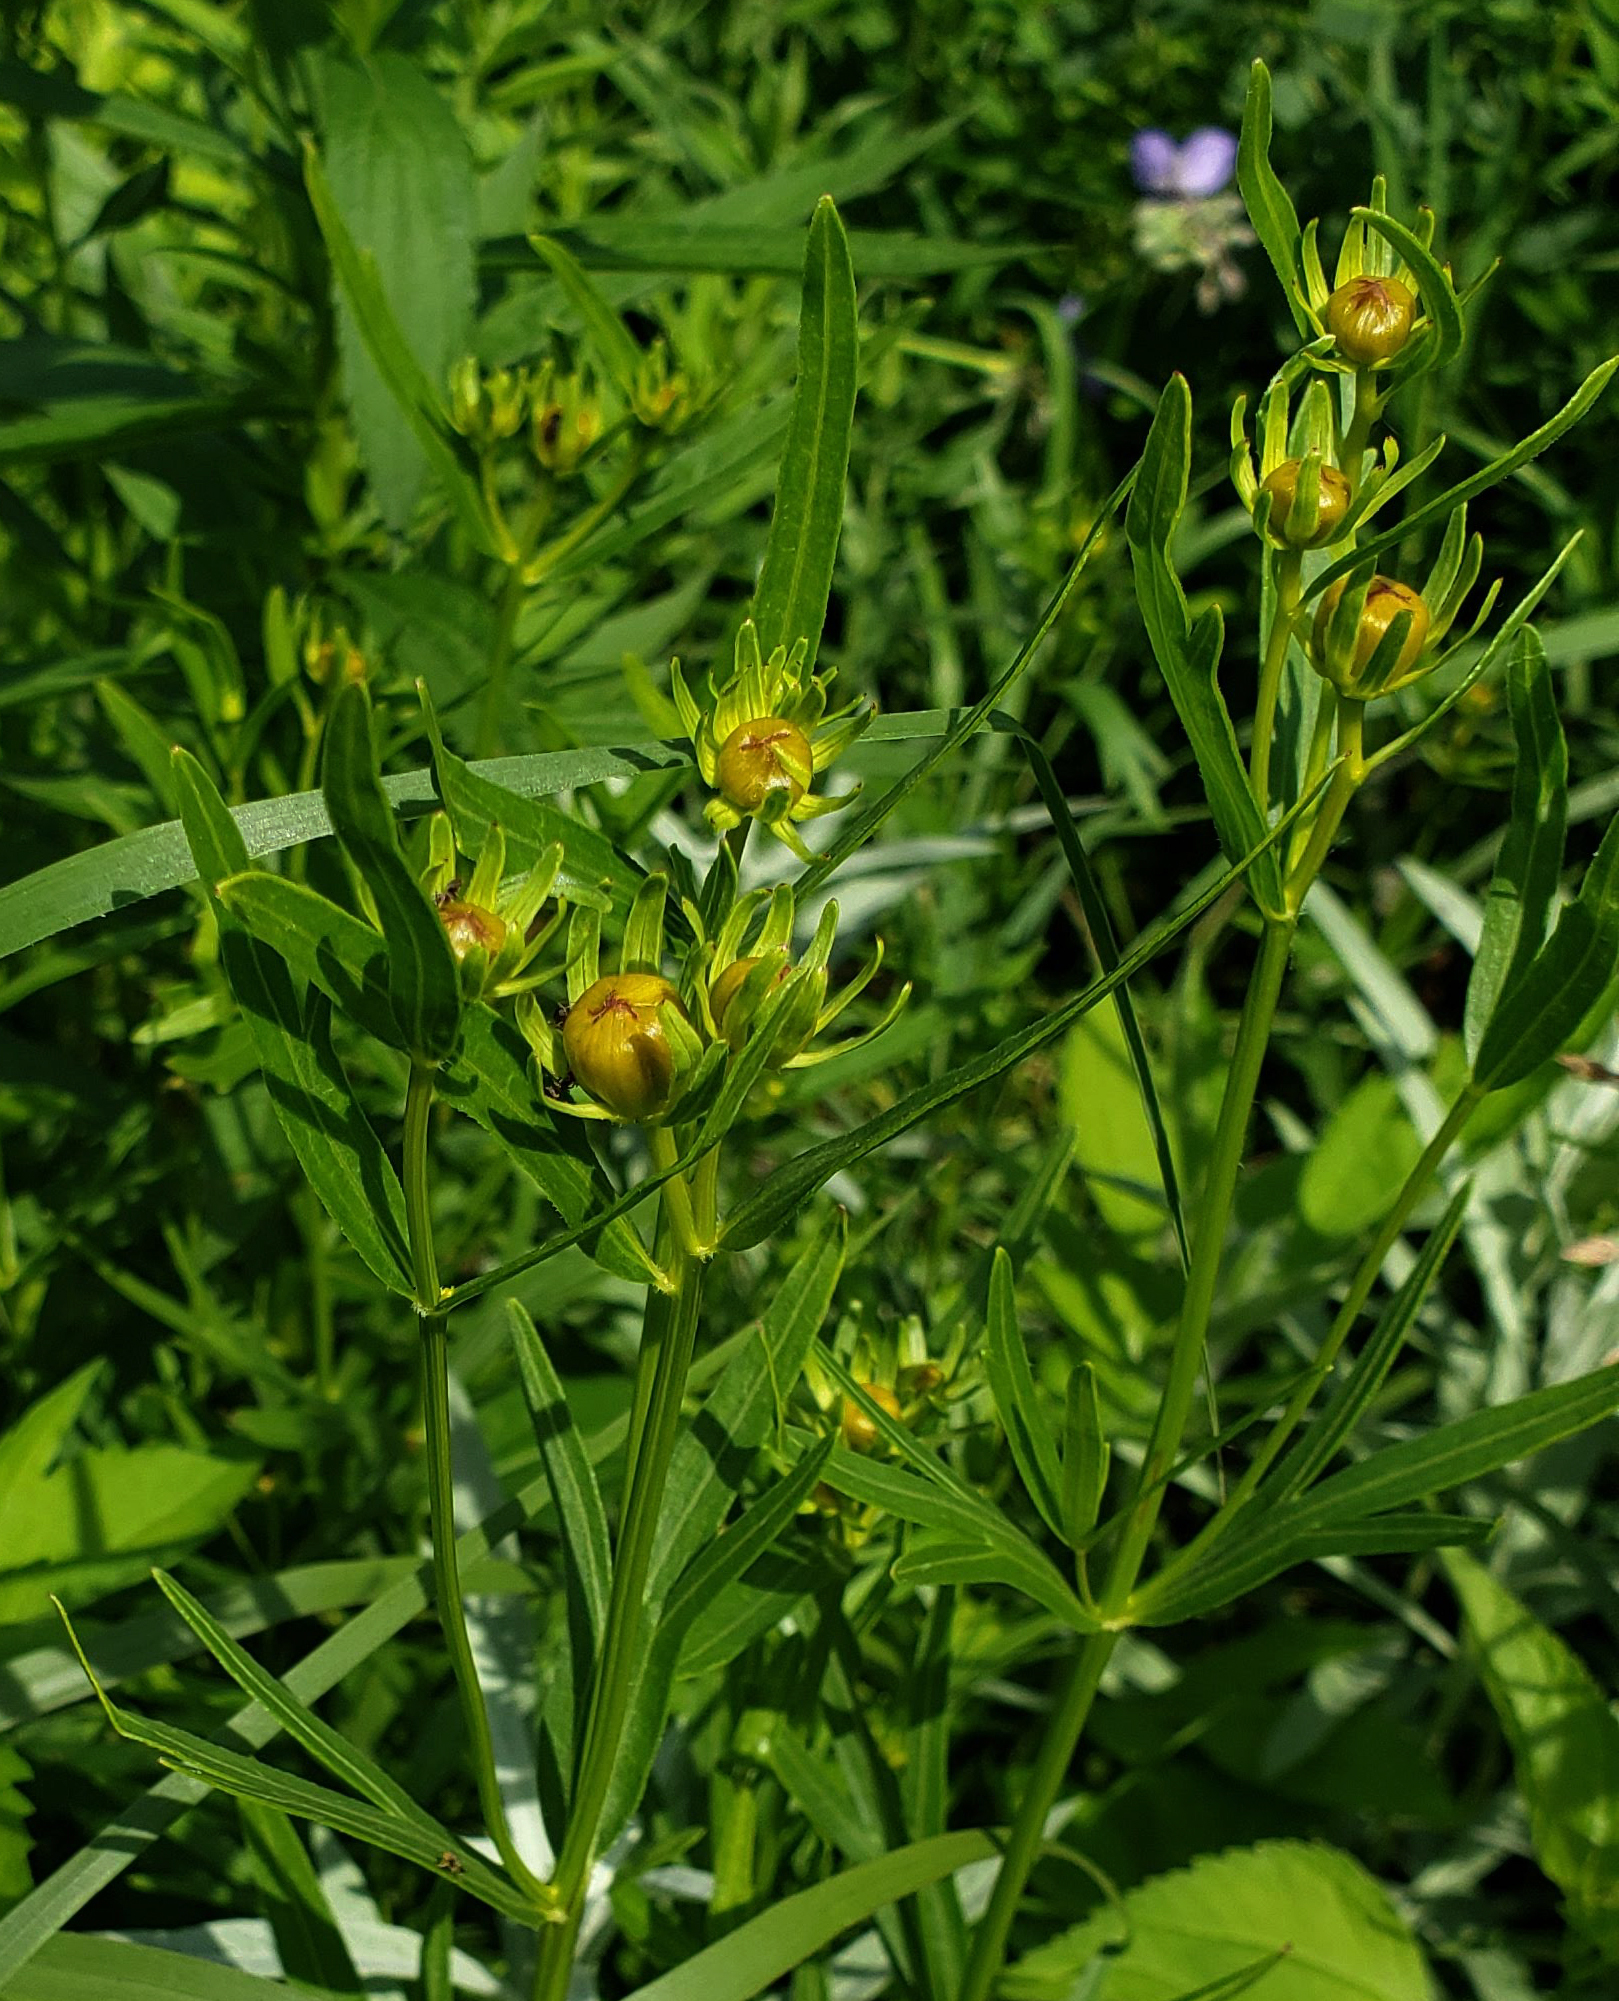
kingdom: Plantae
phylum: Tracheophyta
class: Magnoliopsida
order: Asterales
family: Asteraceae
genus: Coreopsis
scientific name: Coreopsis palmata
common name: Prairie coreopsis
